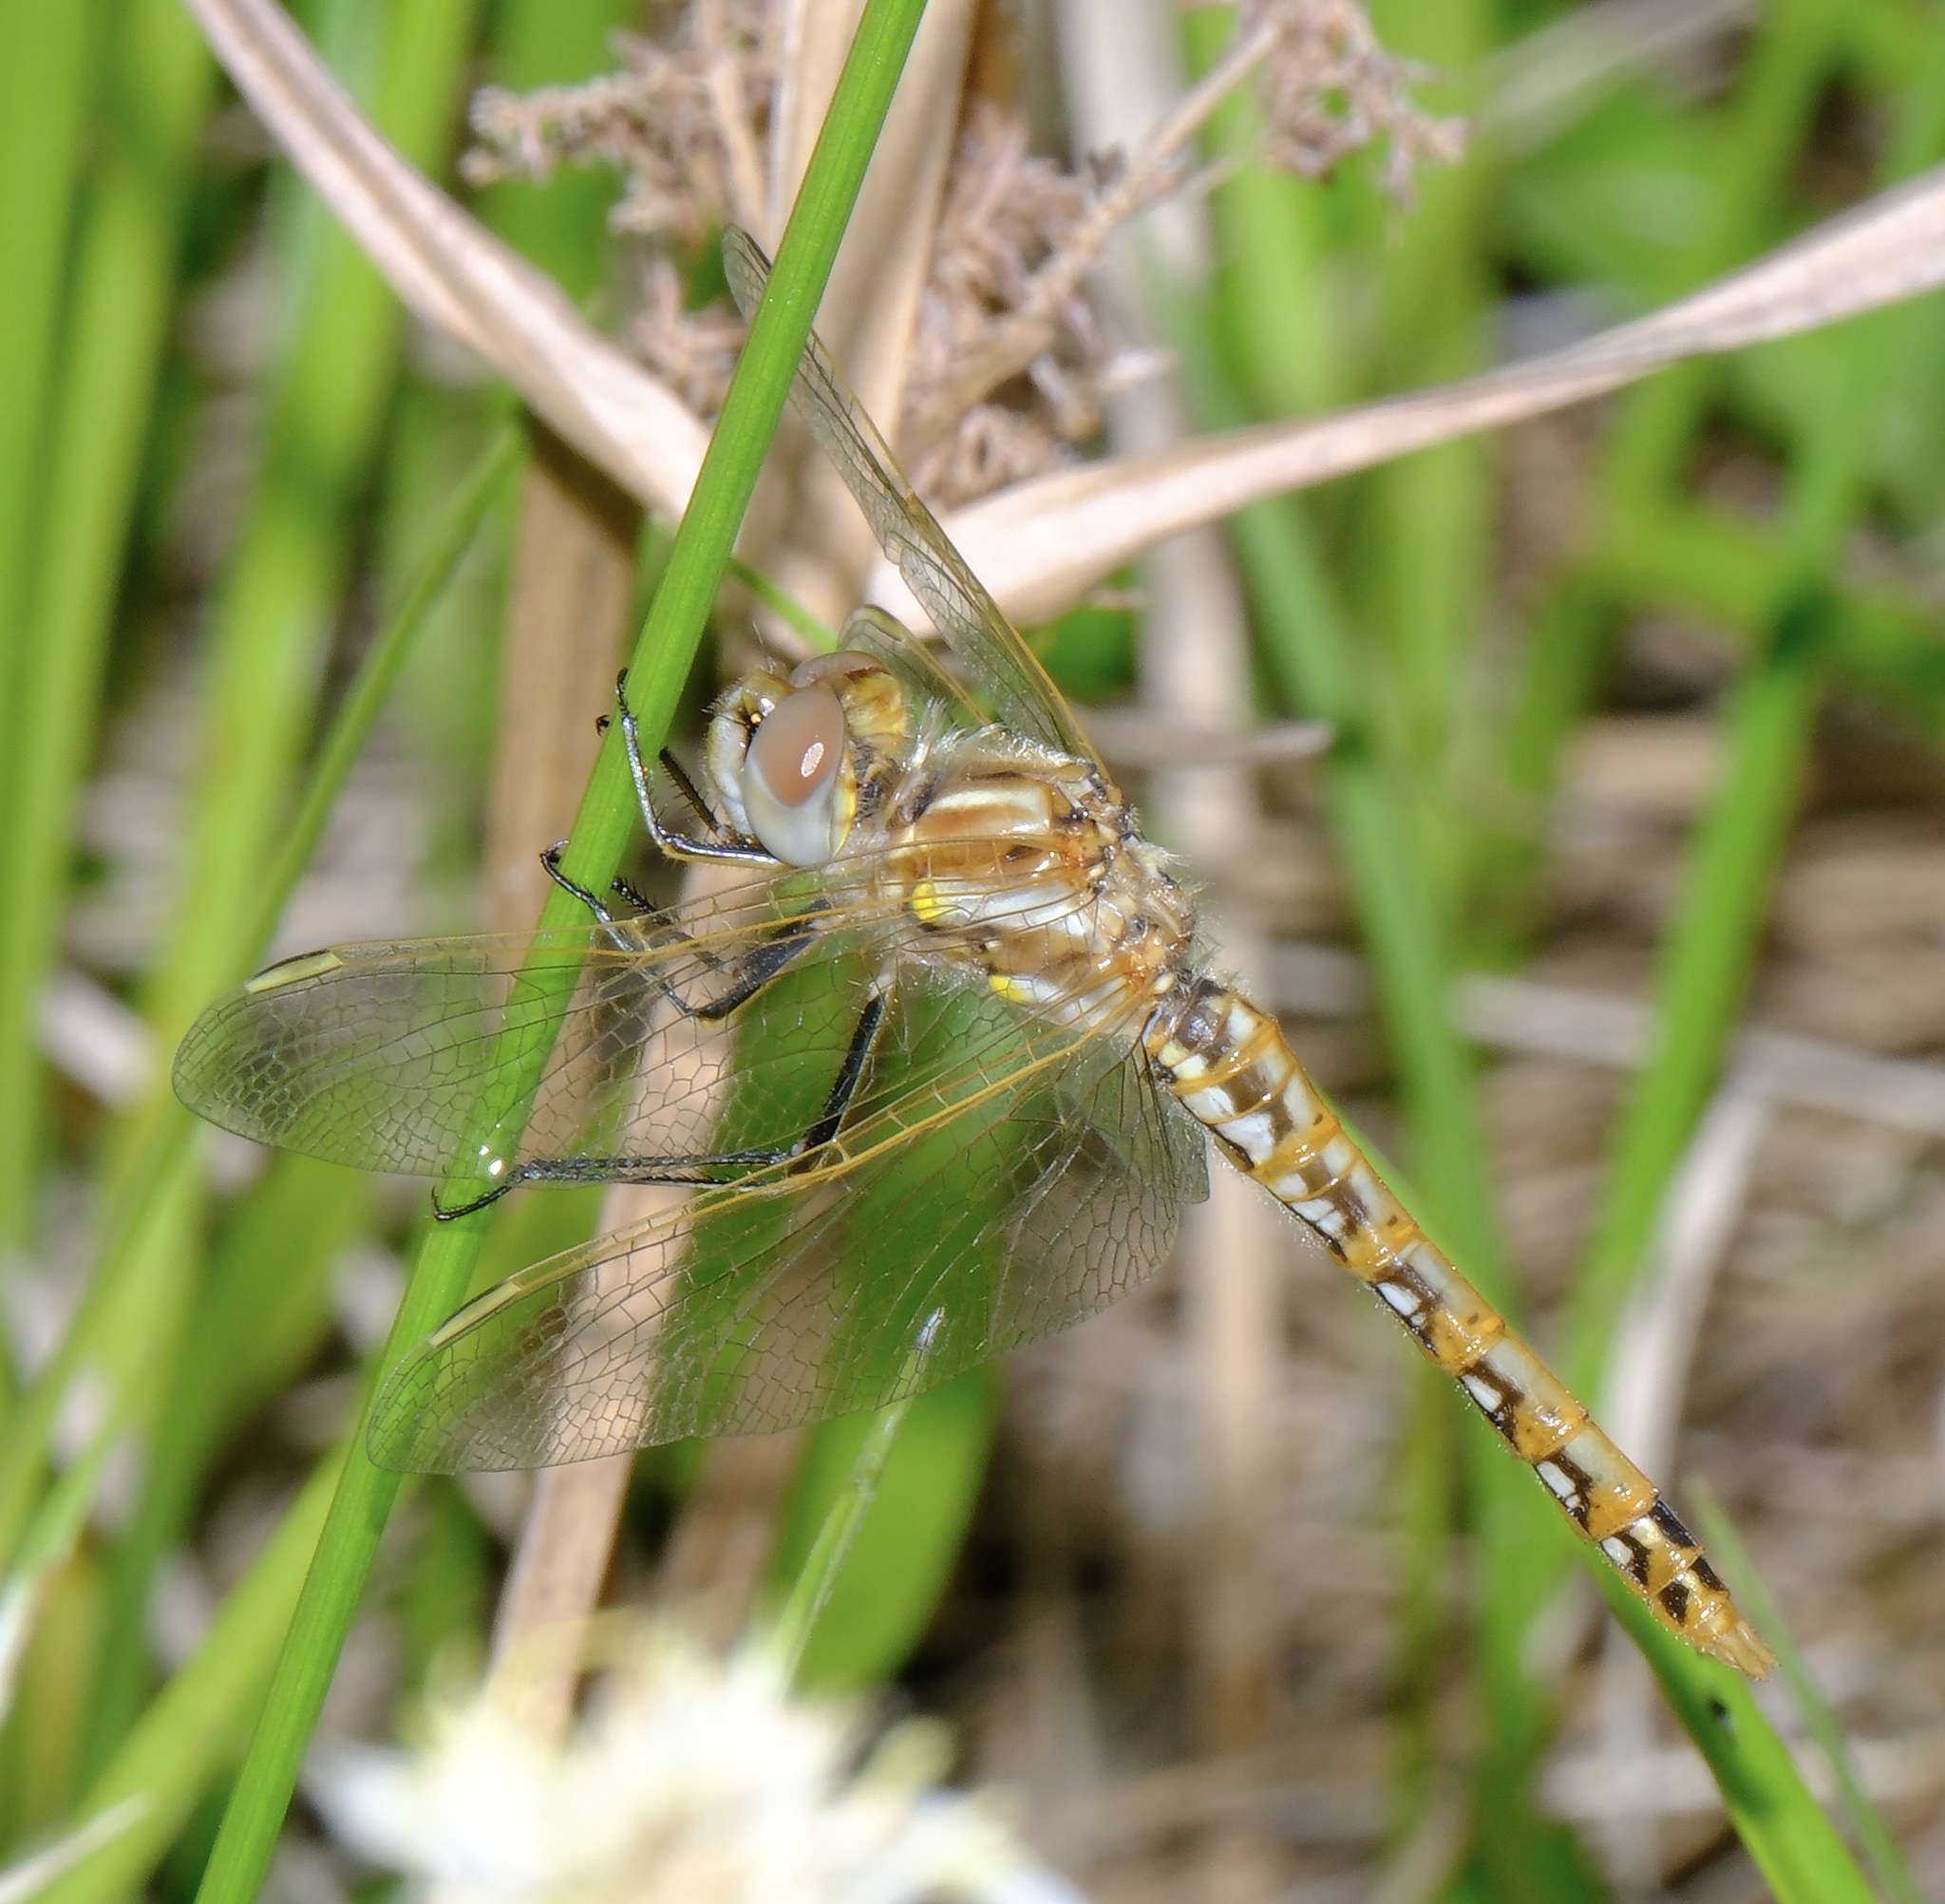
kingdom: Animalia
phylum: Arthropoda
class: Insecta
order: Odonata
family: Libellulidae
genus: Sympetrum
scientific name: Sympetrum corruptum
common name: Variegated meadowhawk
